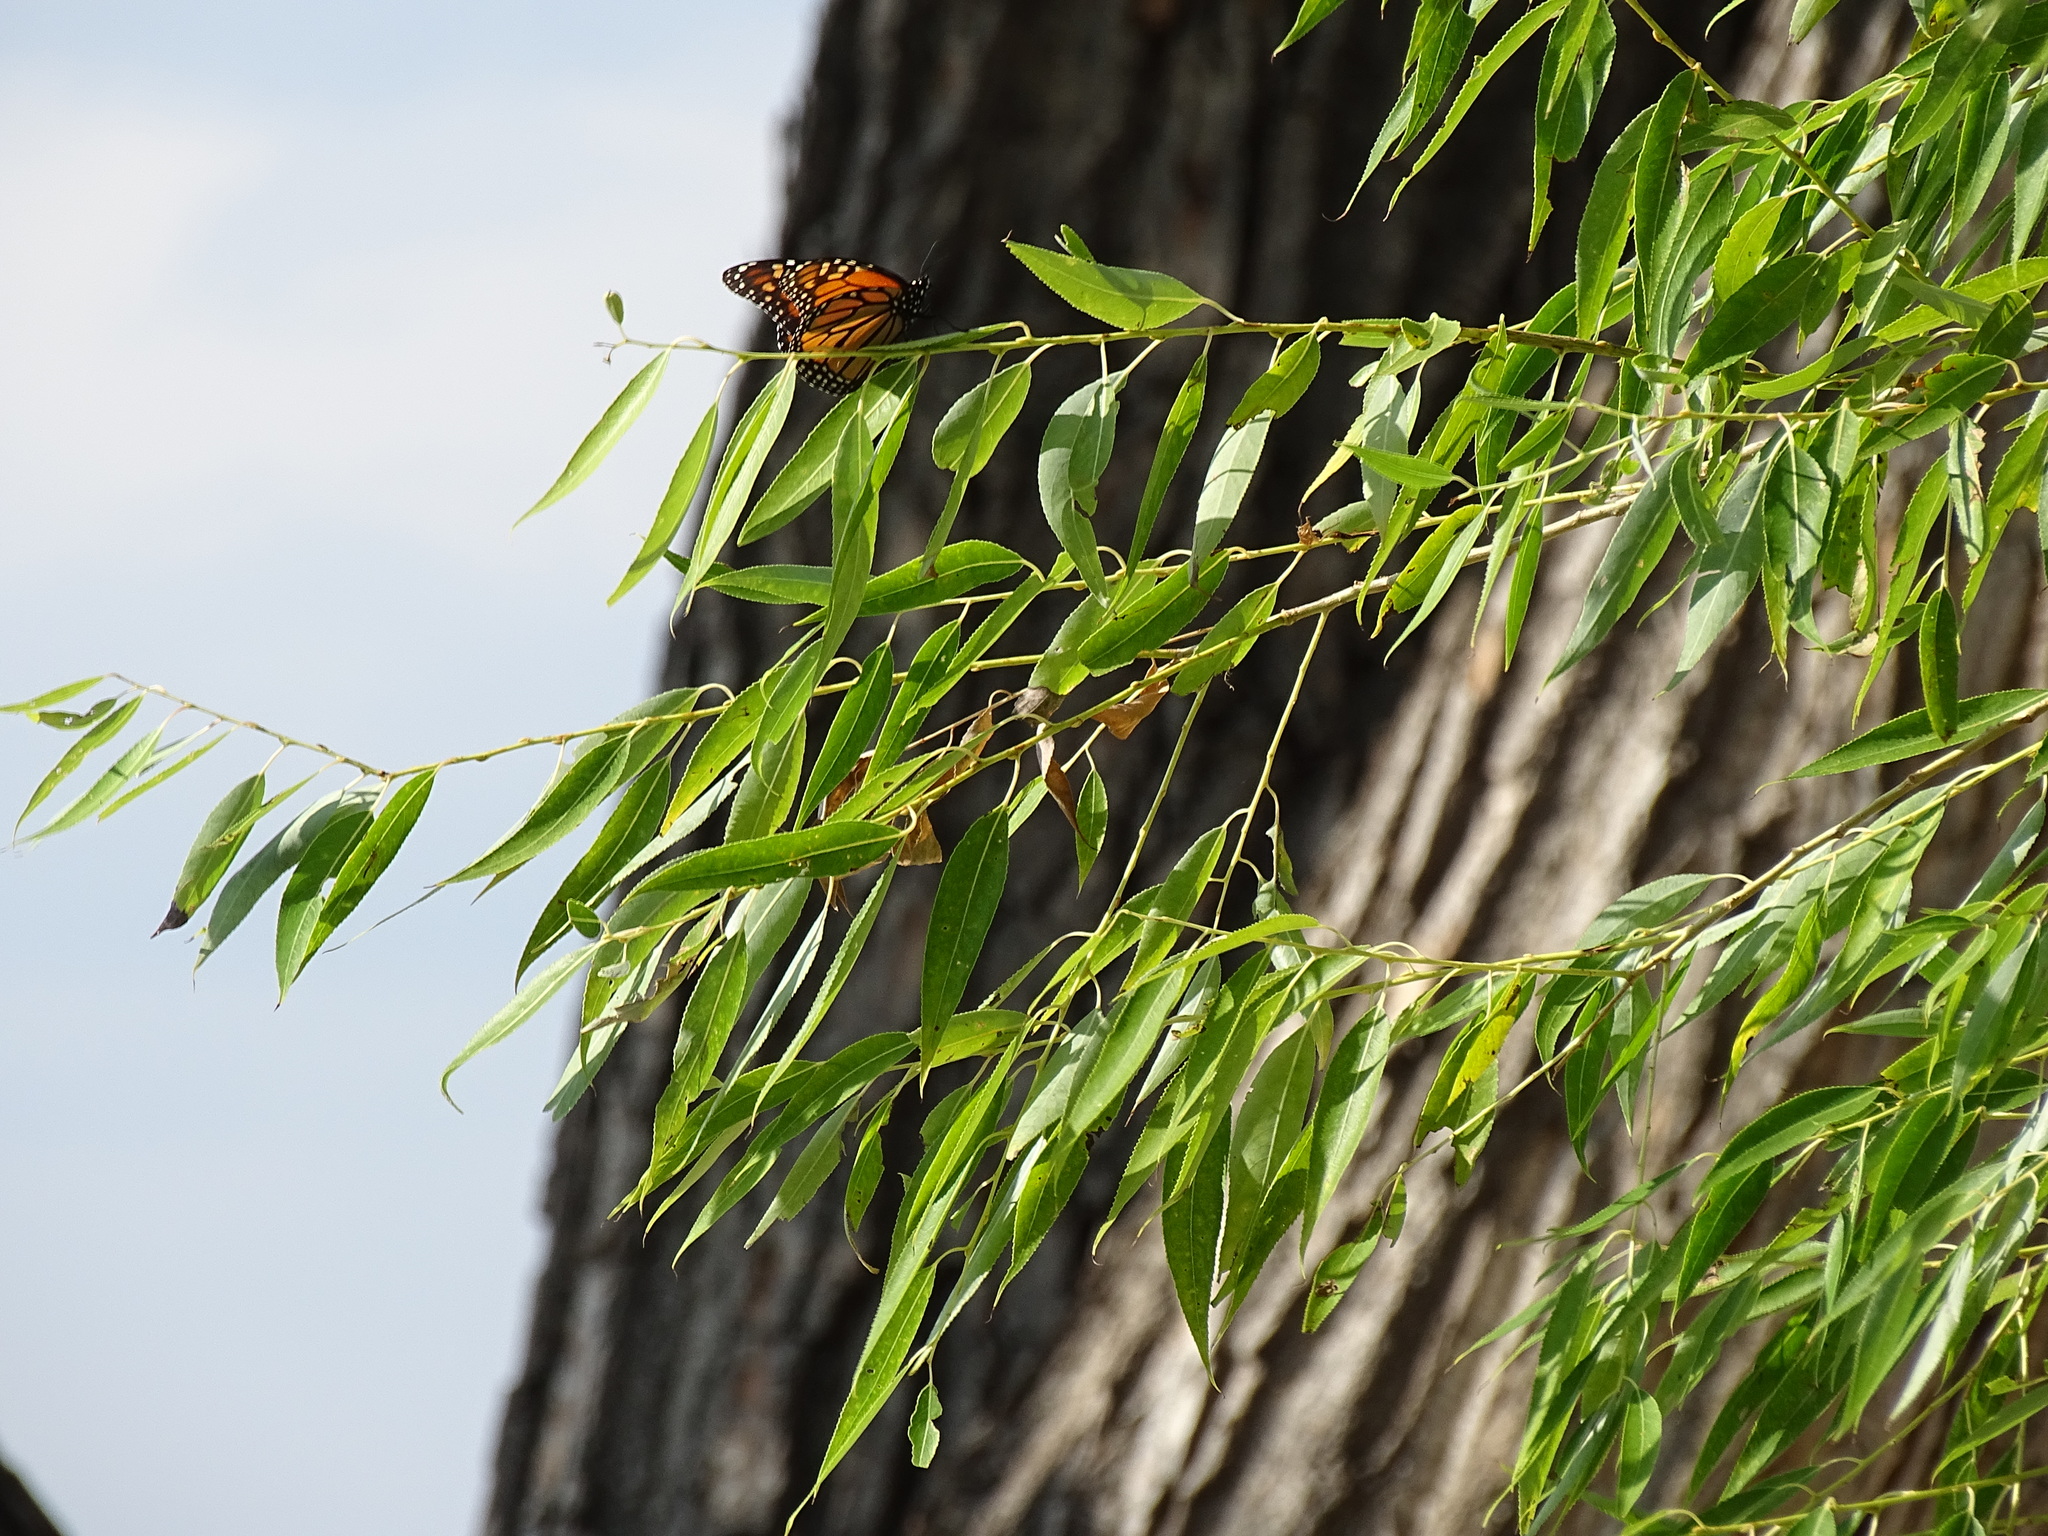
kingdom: Animalia
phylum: Arthropoda
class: Insecta
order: Lepidoptera
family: Nymphalidae
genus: Danaus
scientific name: Danaus plexippus
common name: Monarch
